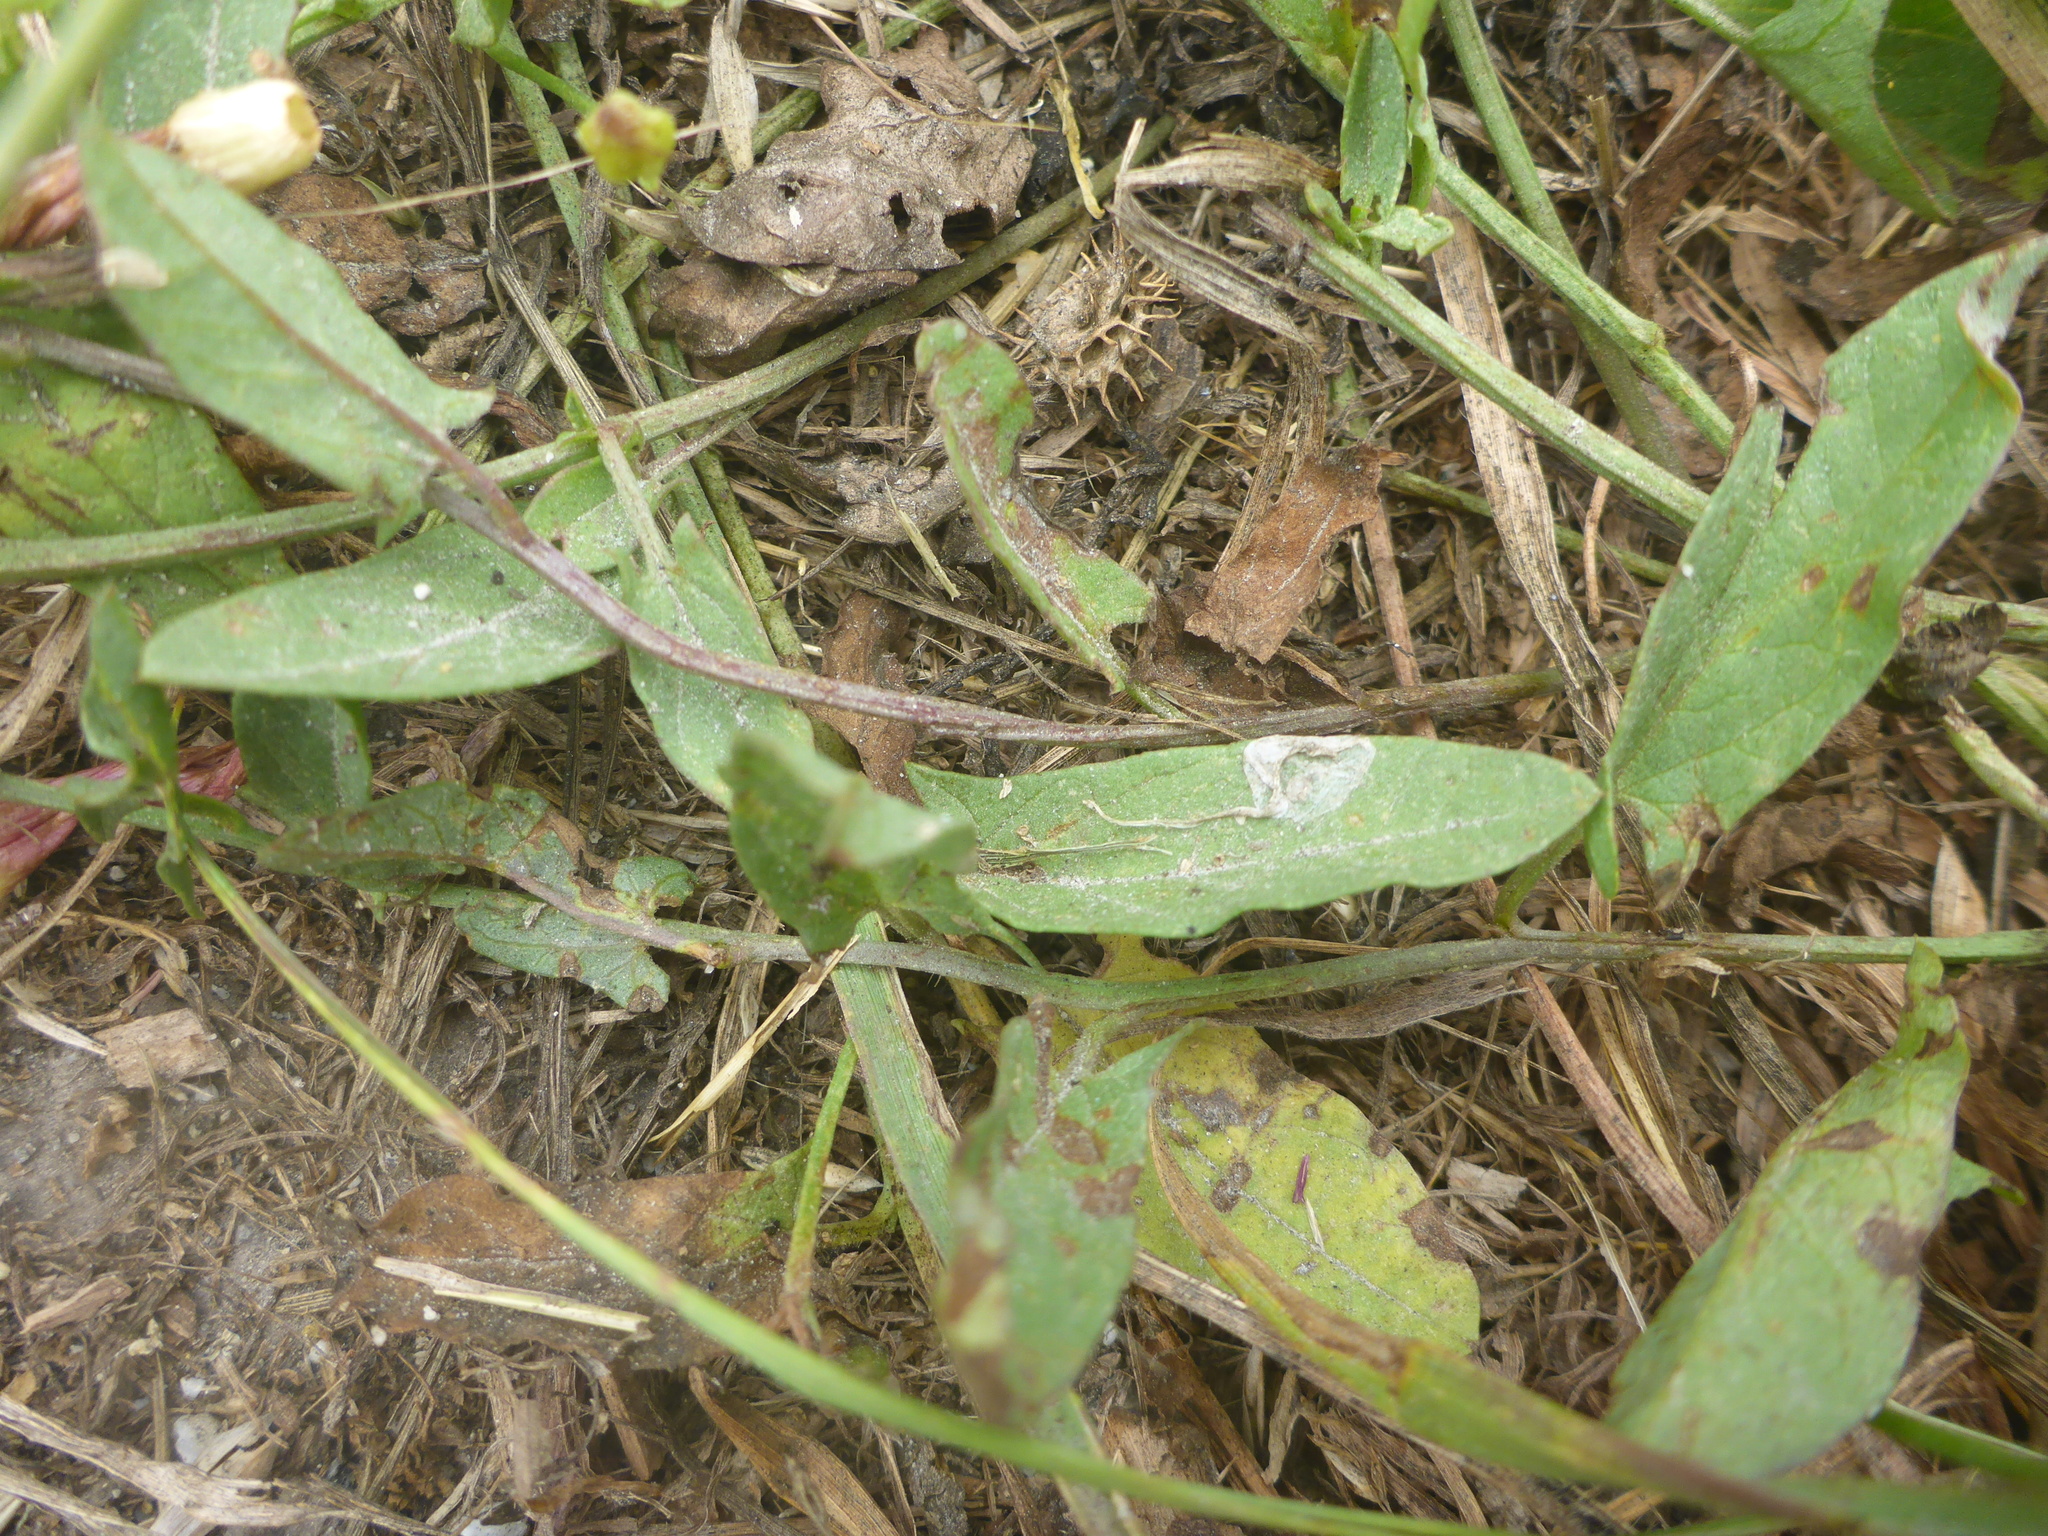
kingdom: Plantae
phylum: Tracheophyta
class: Magnoliopsida
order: Solanales
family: Convolvulaceae
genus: Convolvulus
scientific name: Convolvulus arvensis
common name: Field bindweed
